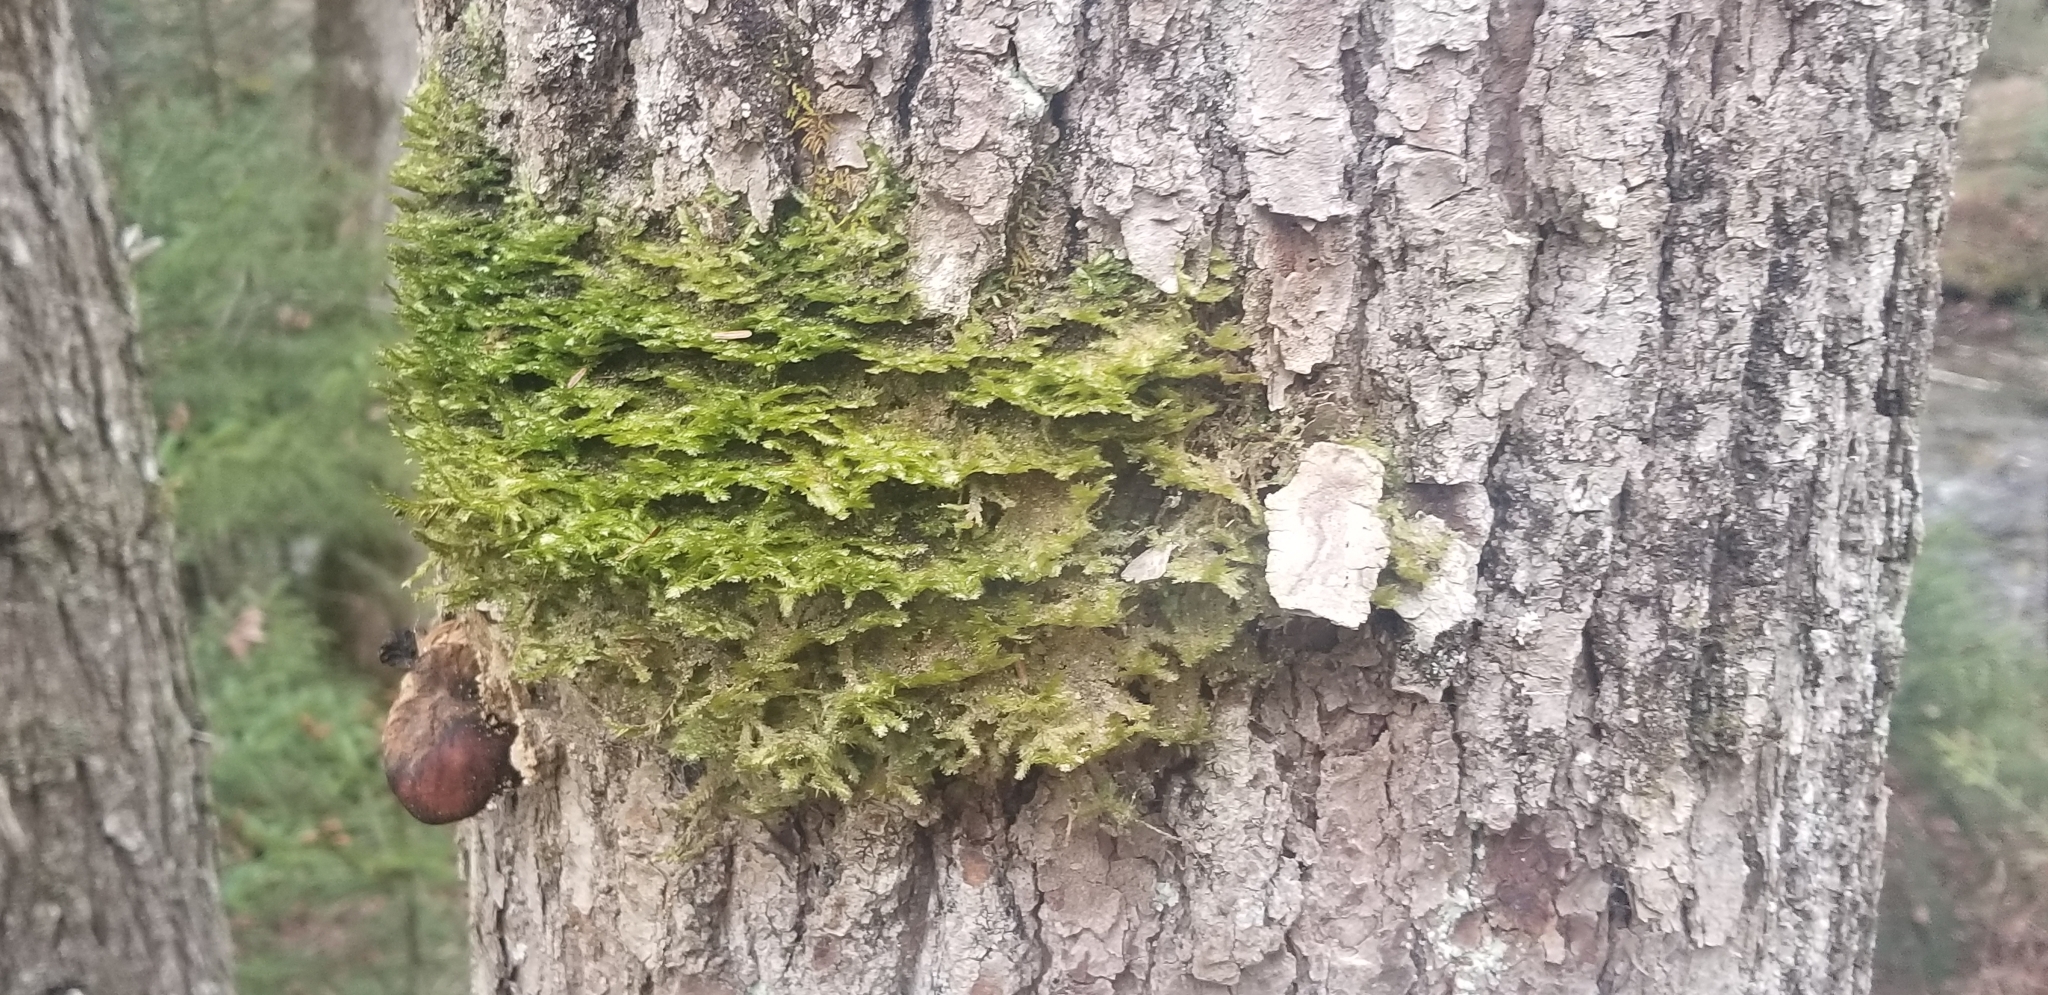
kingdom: Plantae
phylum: Bryophyta
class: Bryopsida
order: Hypnales
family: Neckeraceae
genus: Neckera
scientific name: Neckera pennata
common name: Feathery neckera
